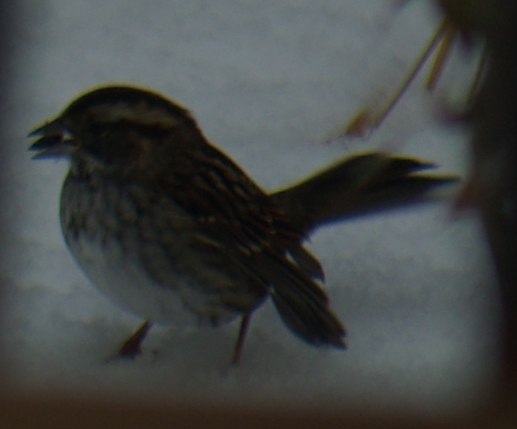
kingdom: Animalia
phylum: Chordata
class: Aves
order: Passeriformes
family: Passerellidae
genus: Zonotrichia
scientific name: Zonotrichia albicollis
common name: White-throated sparrow
